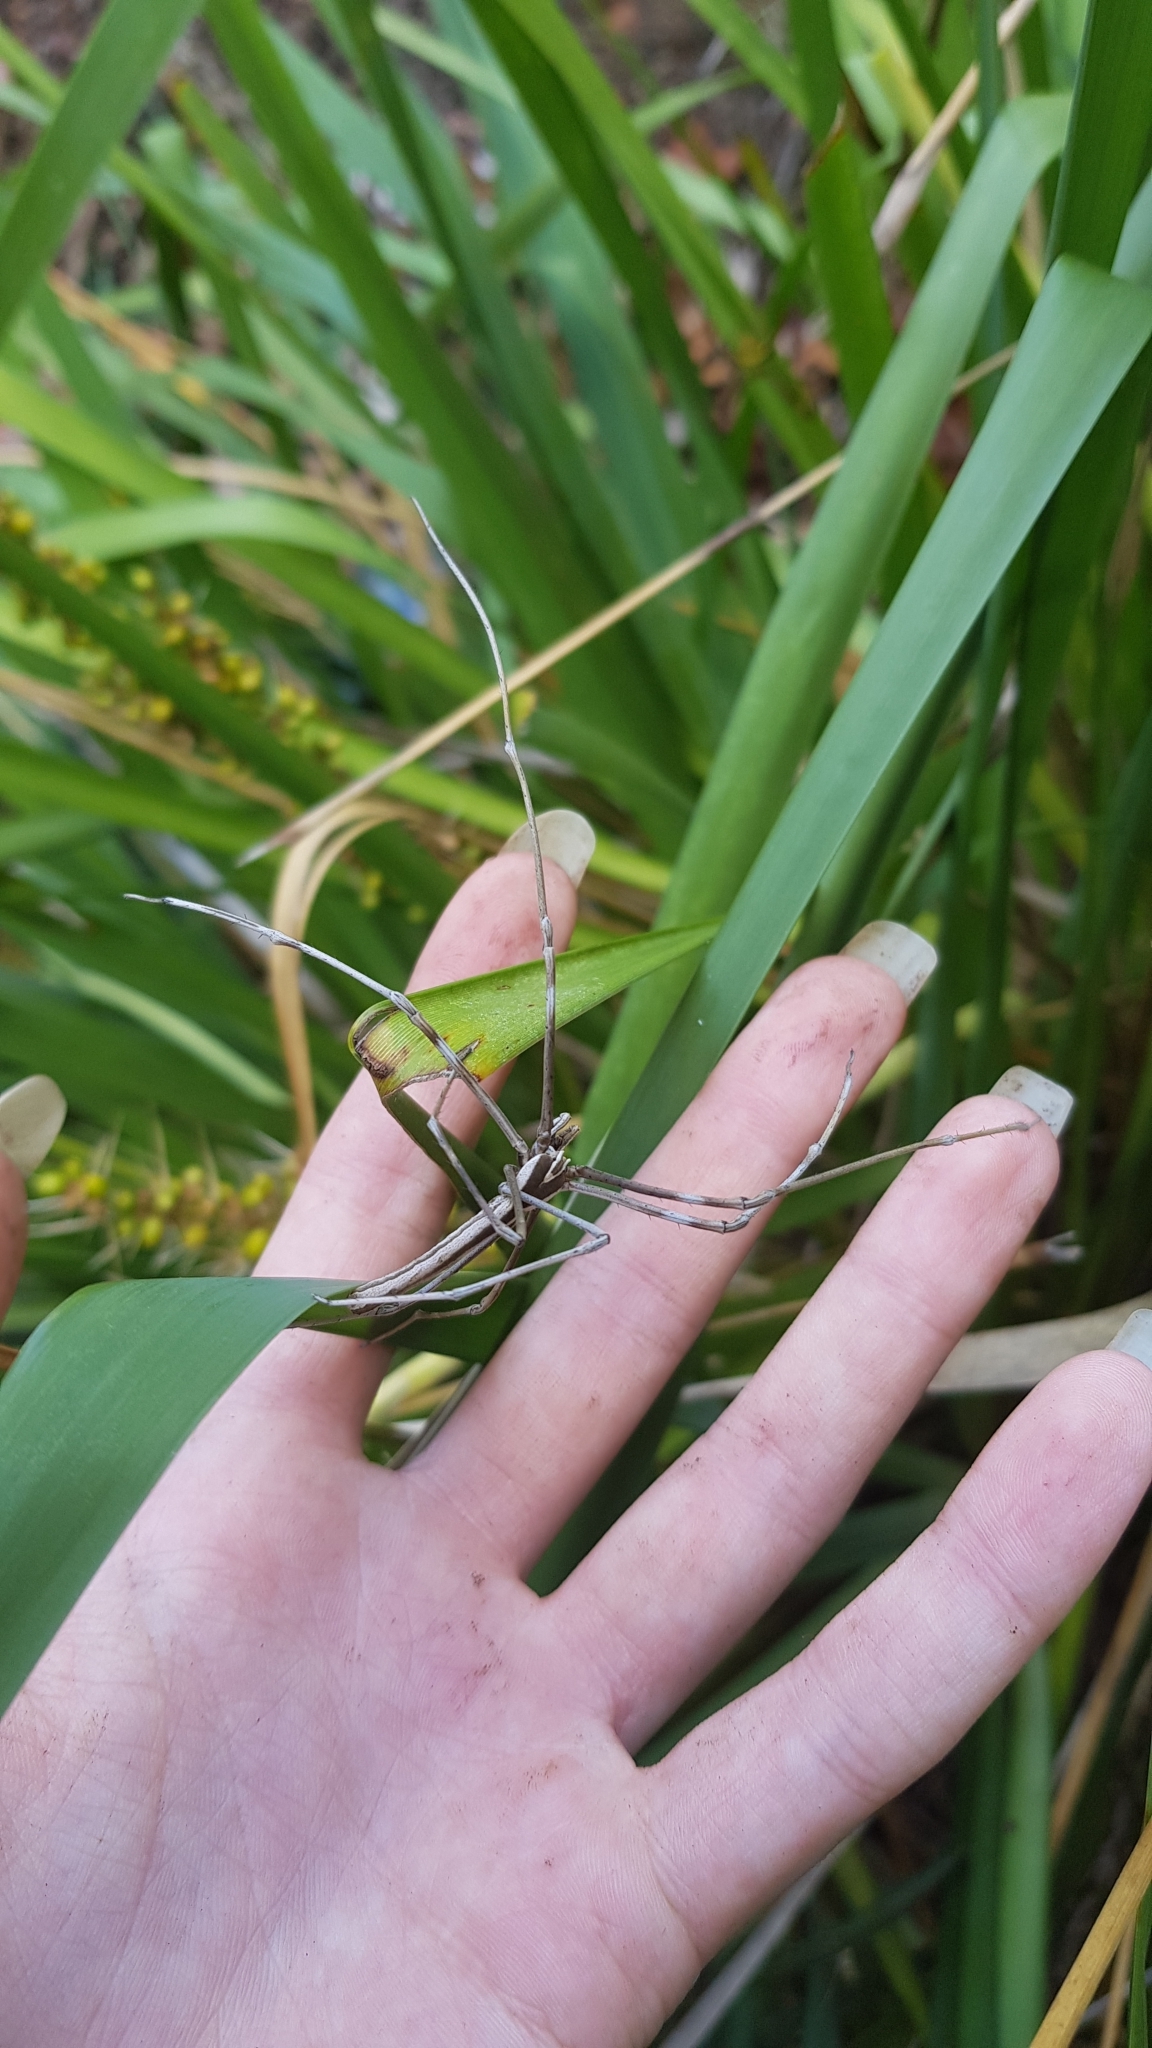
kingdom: Animalia
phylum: Arthropoda
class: Arachnida
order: Araneae
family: Deinopidae
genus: Deinopis
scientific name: Deinopis subrufa
